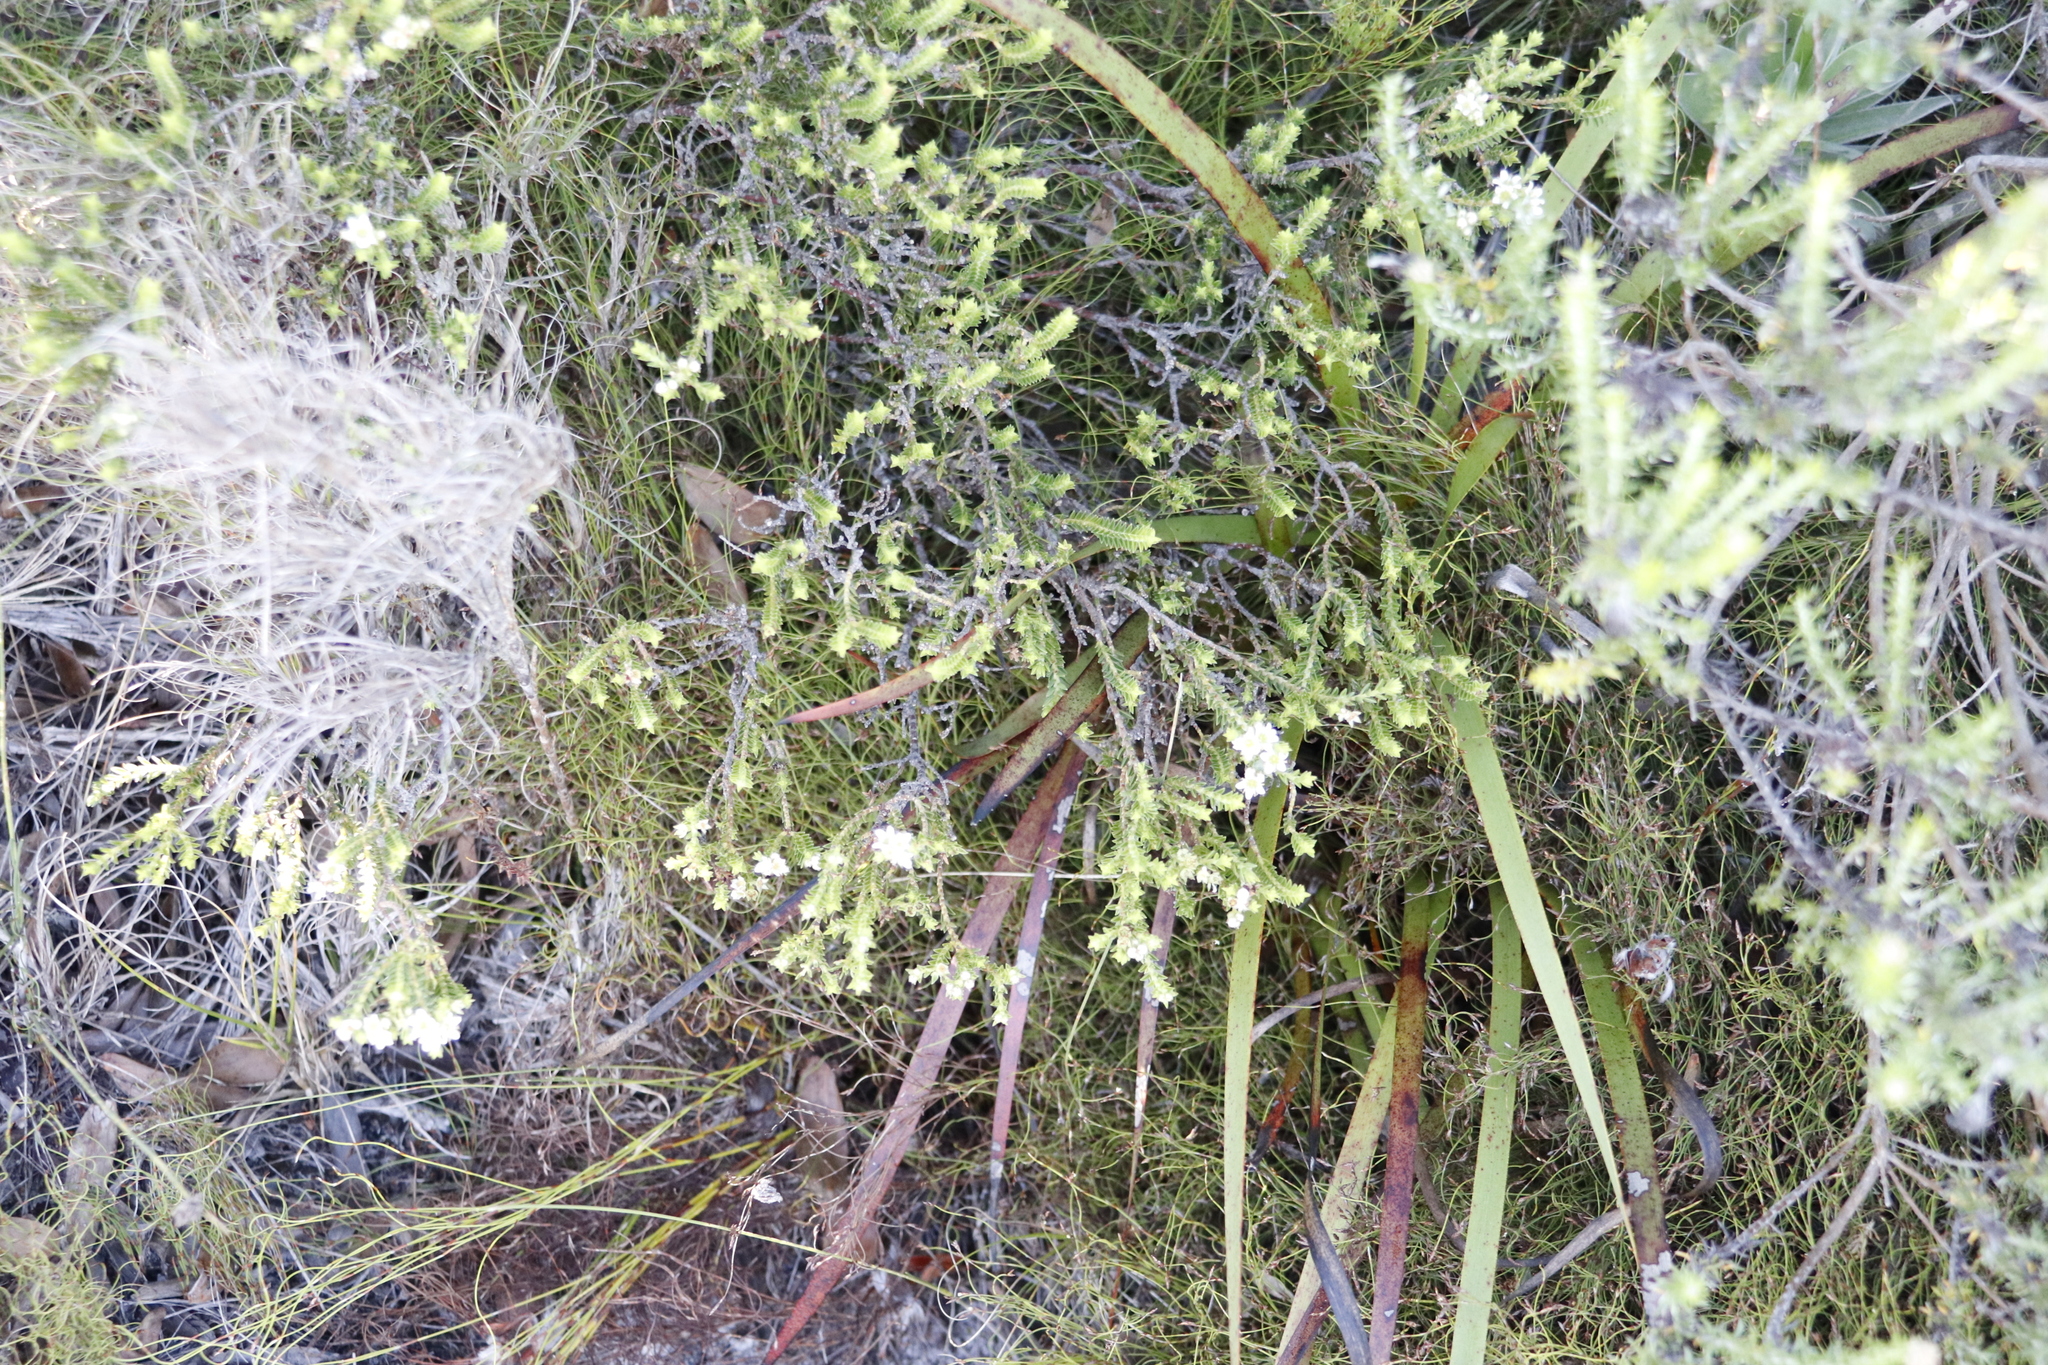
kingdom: Plantae
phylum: Tracheophyta
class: Magnoliopsida
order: Sapindales
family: Rutaceae
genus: Diosma
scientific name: Diosma oppositifolia
